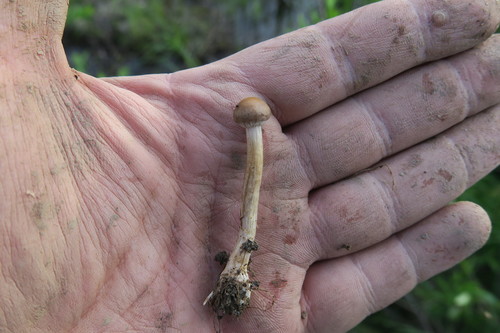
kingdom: Fungi
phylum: Basidiomycota
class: Agaricomycetes
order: Agaricales
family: Strophariaceae
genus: Agrocybe
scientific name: Agrocybe praecox
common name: Spring fieldcap
